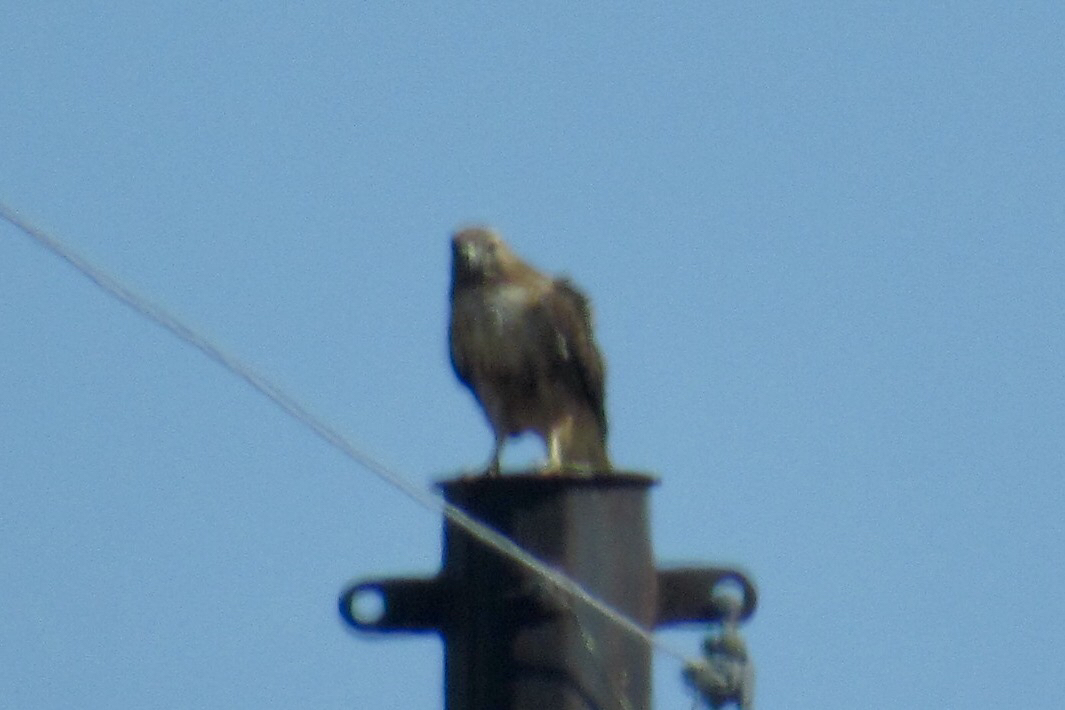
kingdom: Animalia
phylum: Chordata
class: Aves
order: Accipitriformes
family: Accipitridae
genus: Buteo
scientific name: Buteo jamaicensis
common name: Red-tailed hawk
